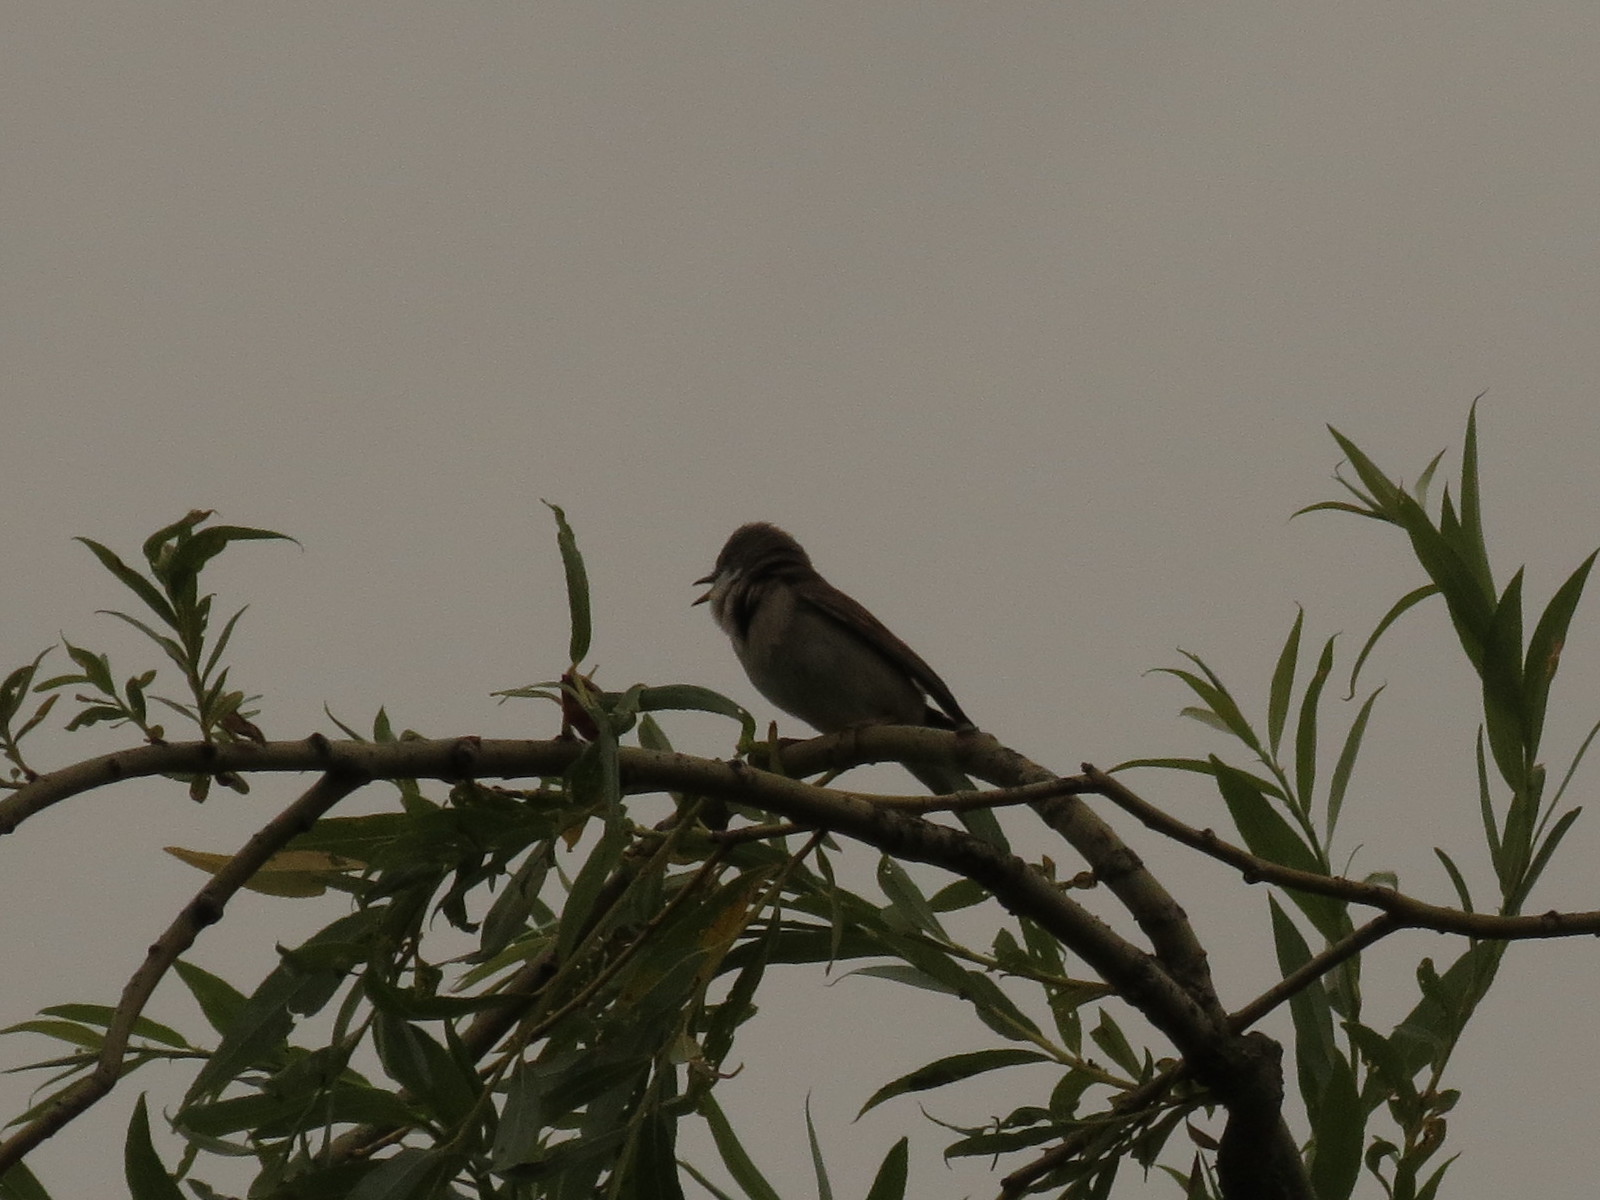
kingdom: Animalia
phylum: Chordata
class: Aves
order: Passeriformes
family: Sylviidae
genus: Sylvia
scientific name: Sylvia communis
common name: Common whitethroat
